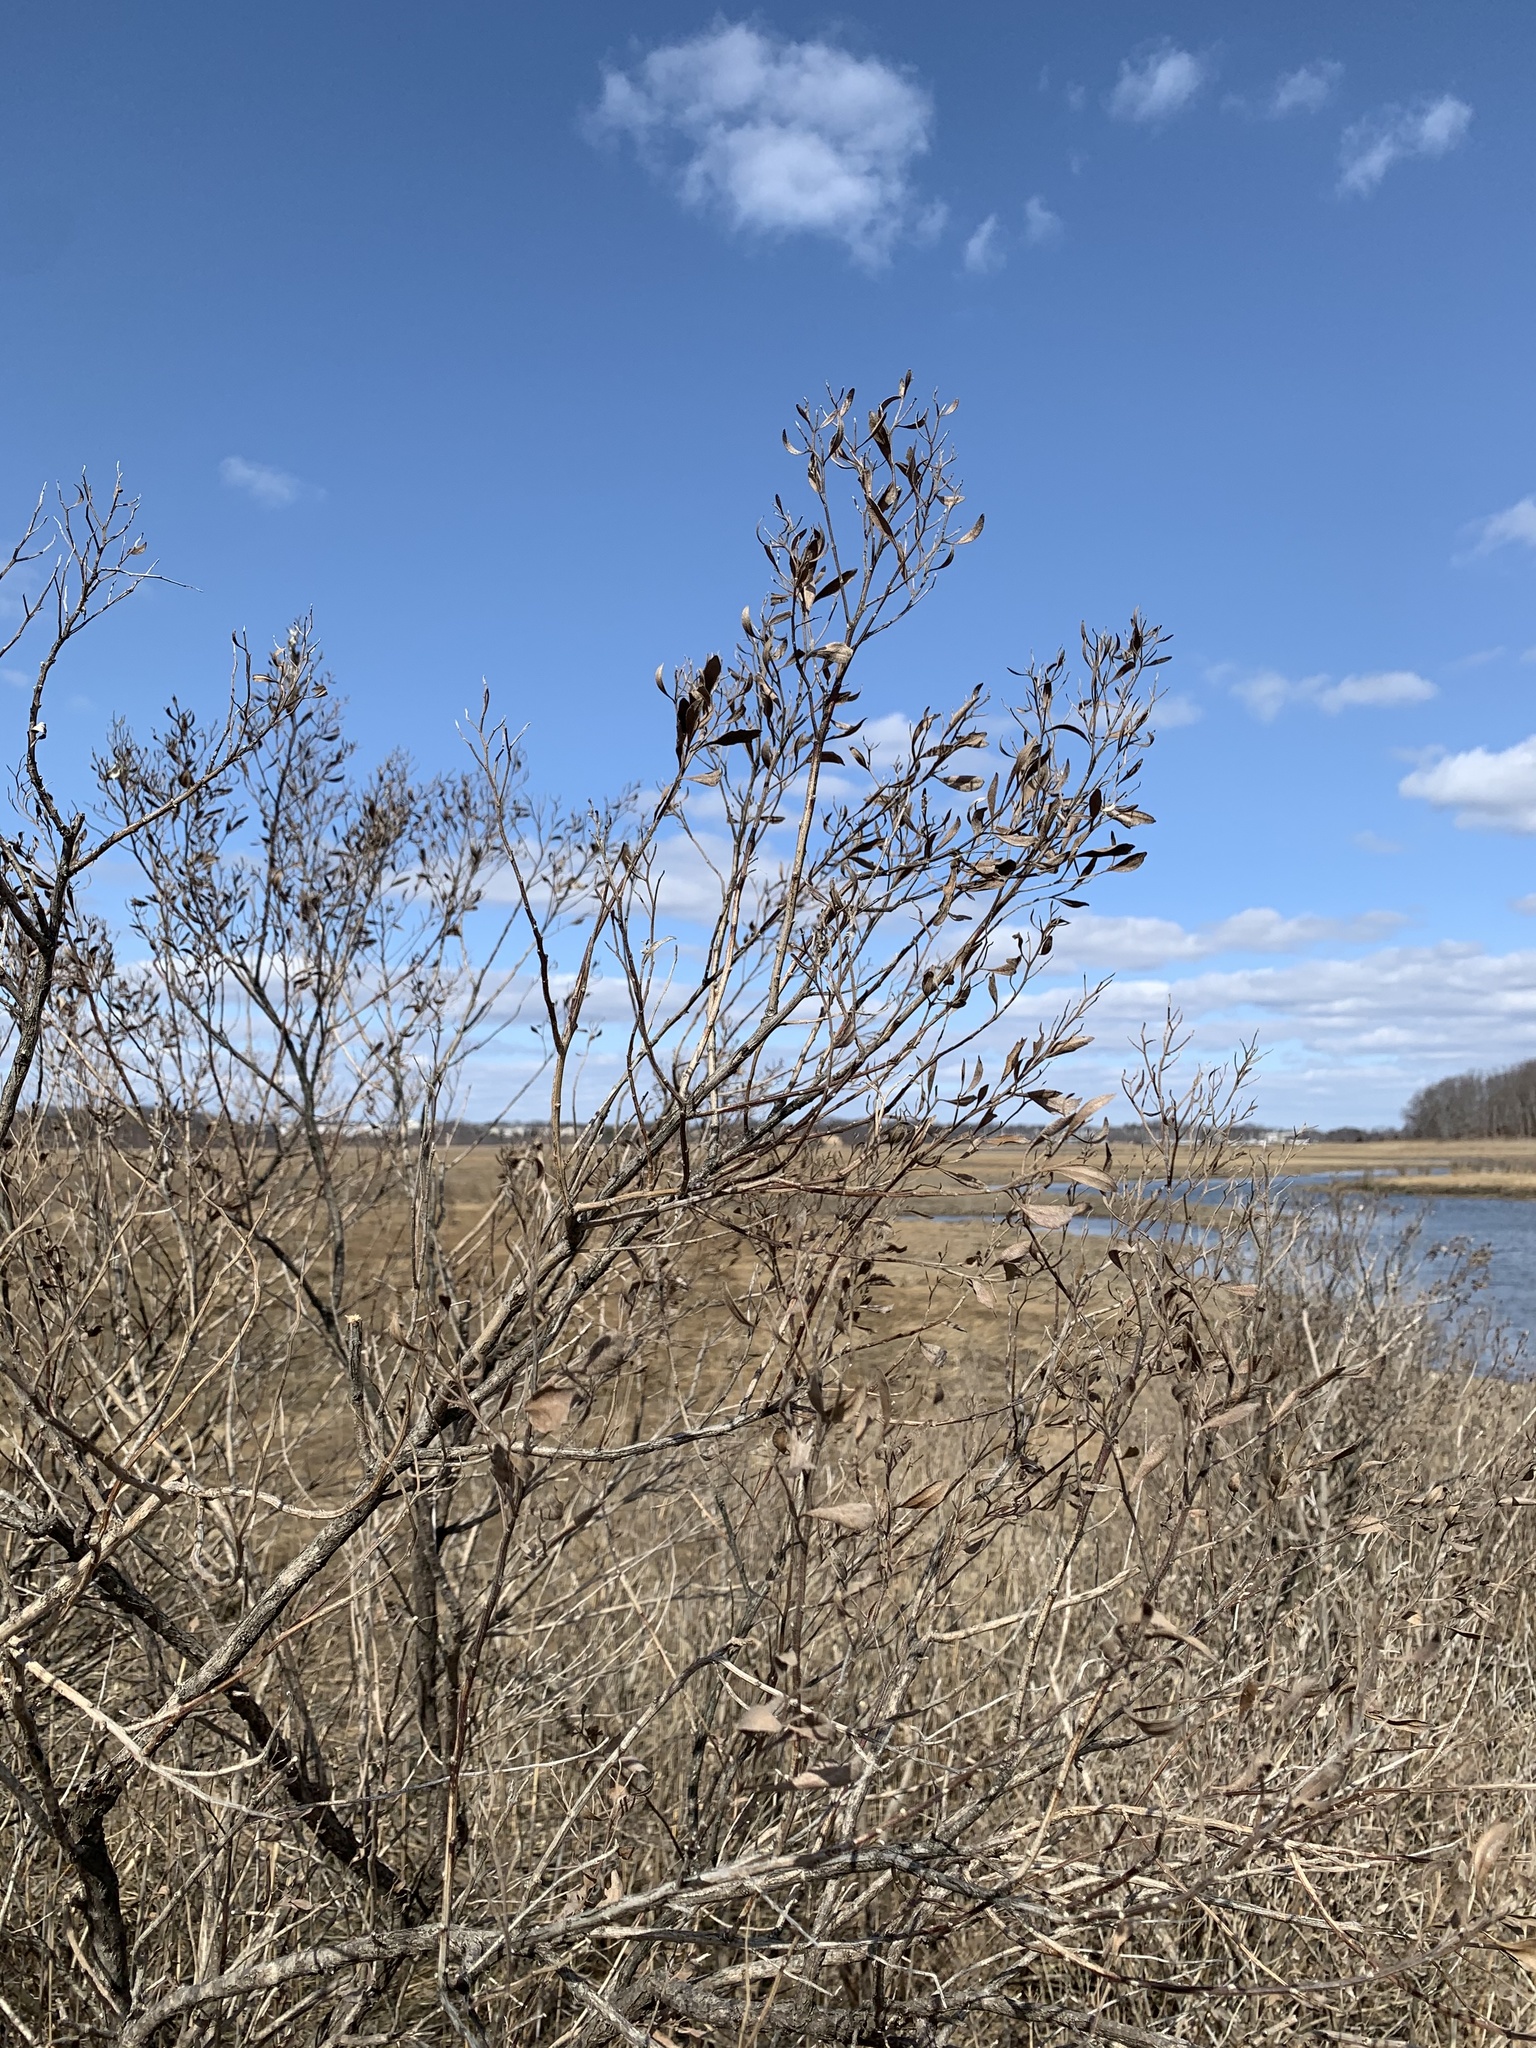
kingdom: Plantae
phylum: Tracheophyta
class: Magnoliopsida
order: Asterales
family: Asteraceae
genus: Baccharis
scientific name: Baccharis halimifolia
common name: Eastern baccharis
